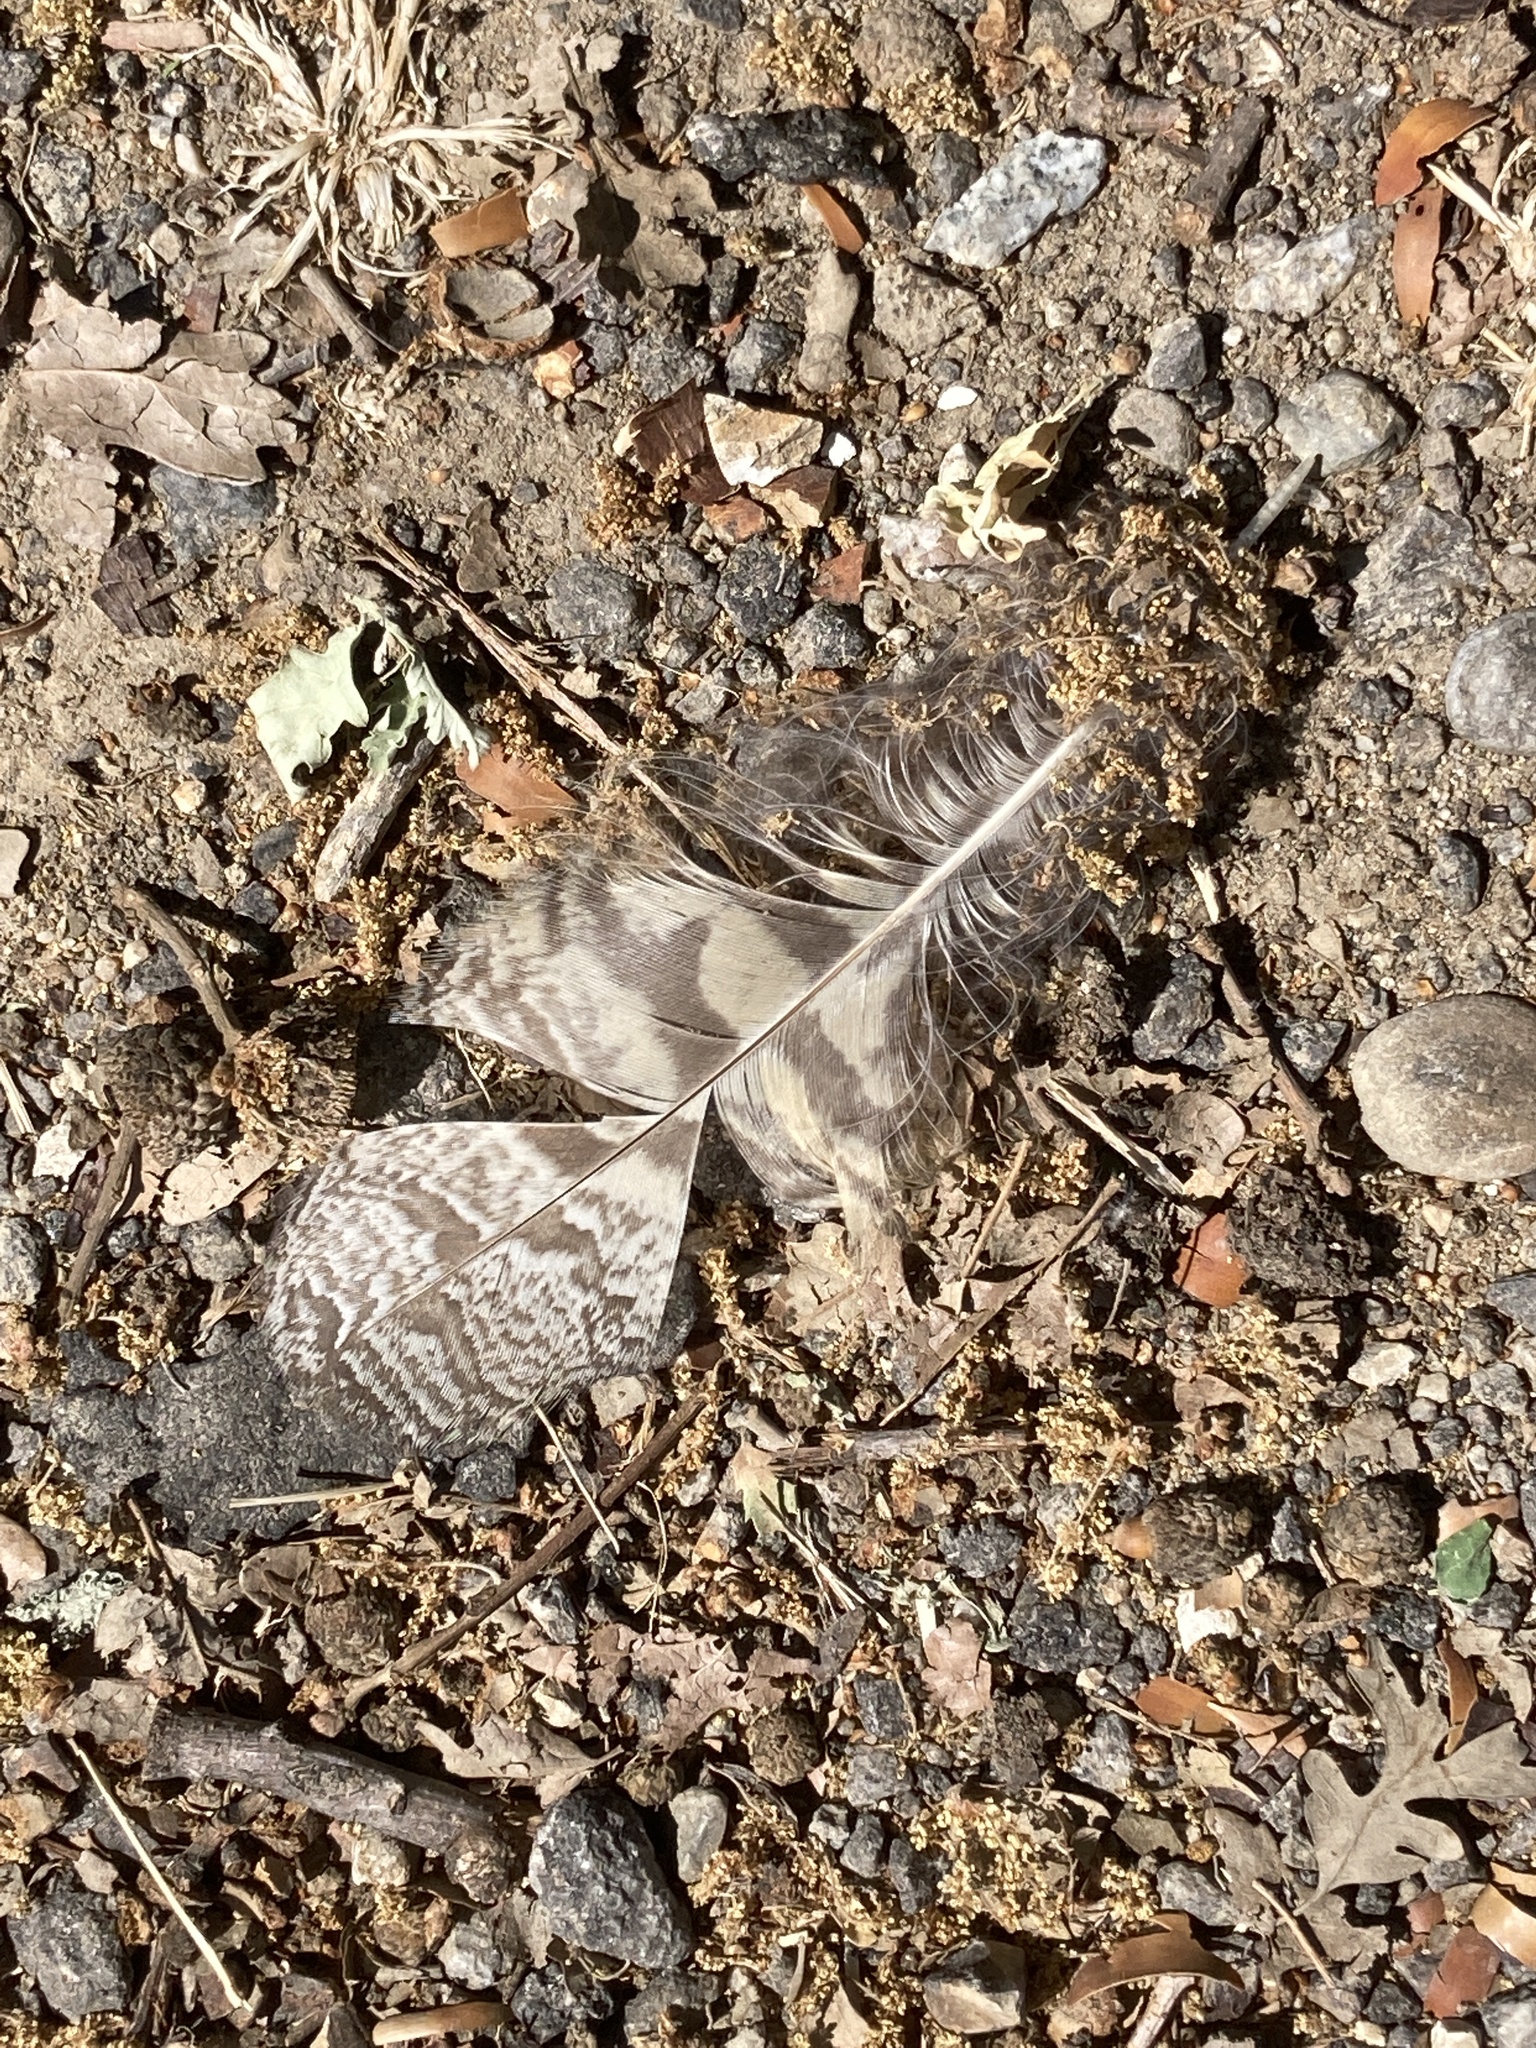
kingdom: Animalia
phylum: Chordata
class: Aves
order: Strigiformes
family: Strigidae
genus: Bubo
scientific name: Bubo virginianus
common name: Great horned owl
